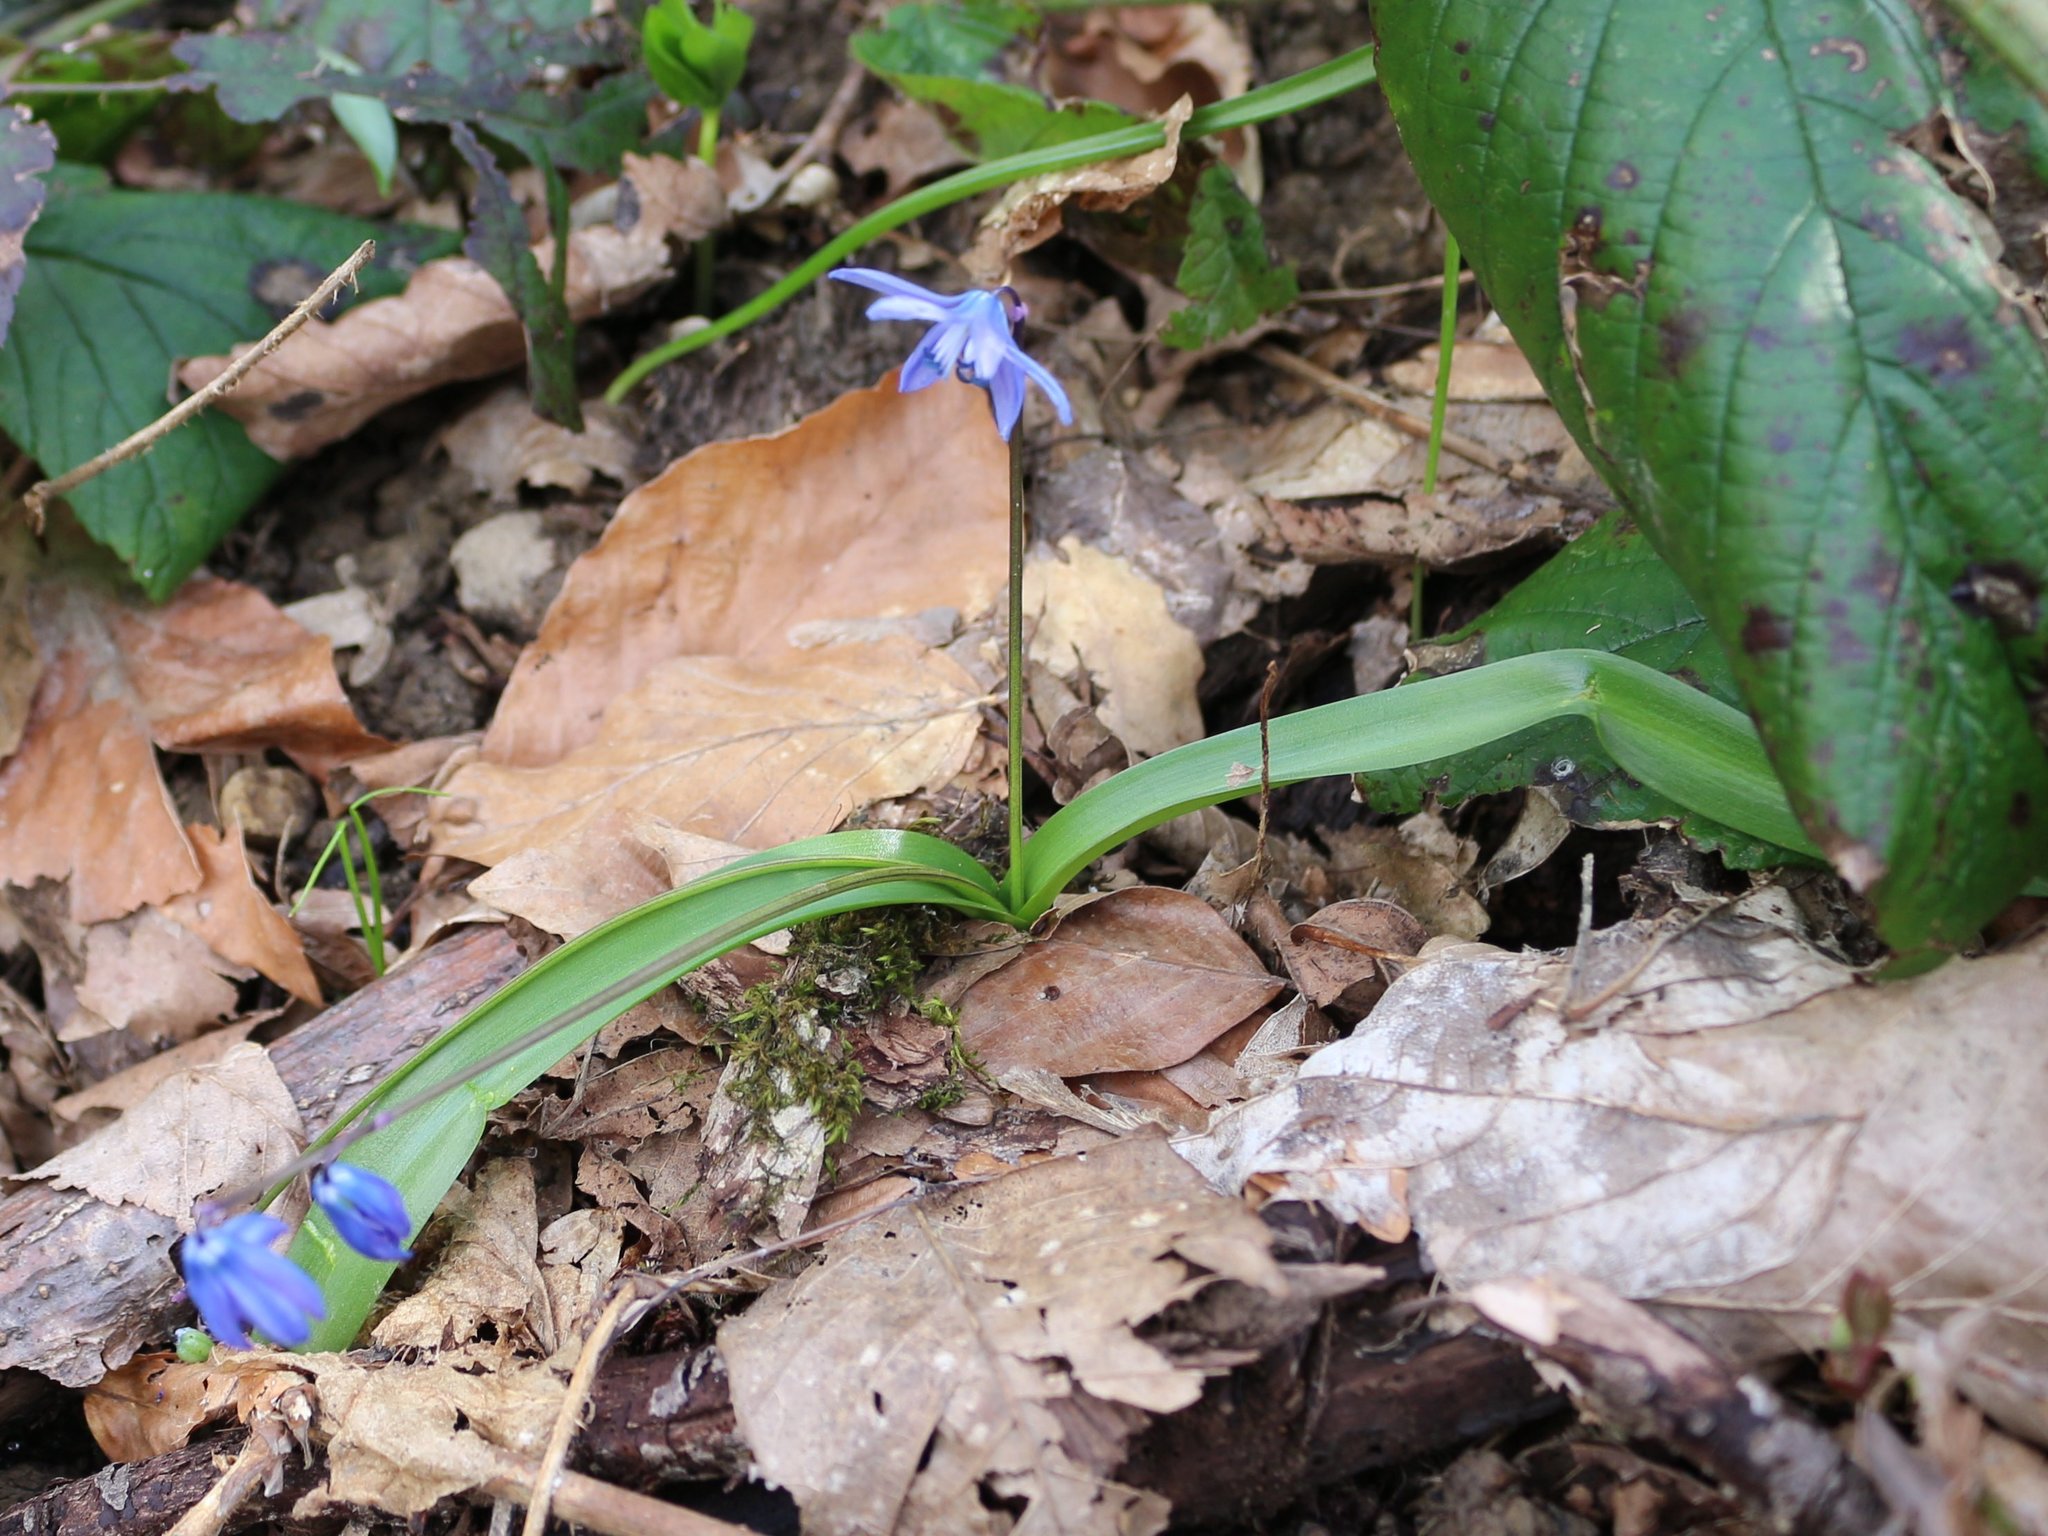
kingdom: Plantae
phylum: Tracheophyta
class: Liliopsida
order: Asparagales
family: Asparagaceae
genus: Scilla
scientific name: Scilla siberica
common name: Siberian squill
